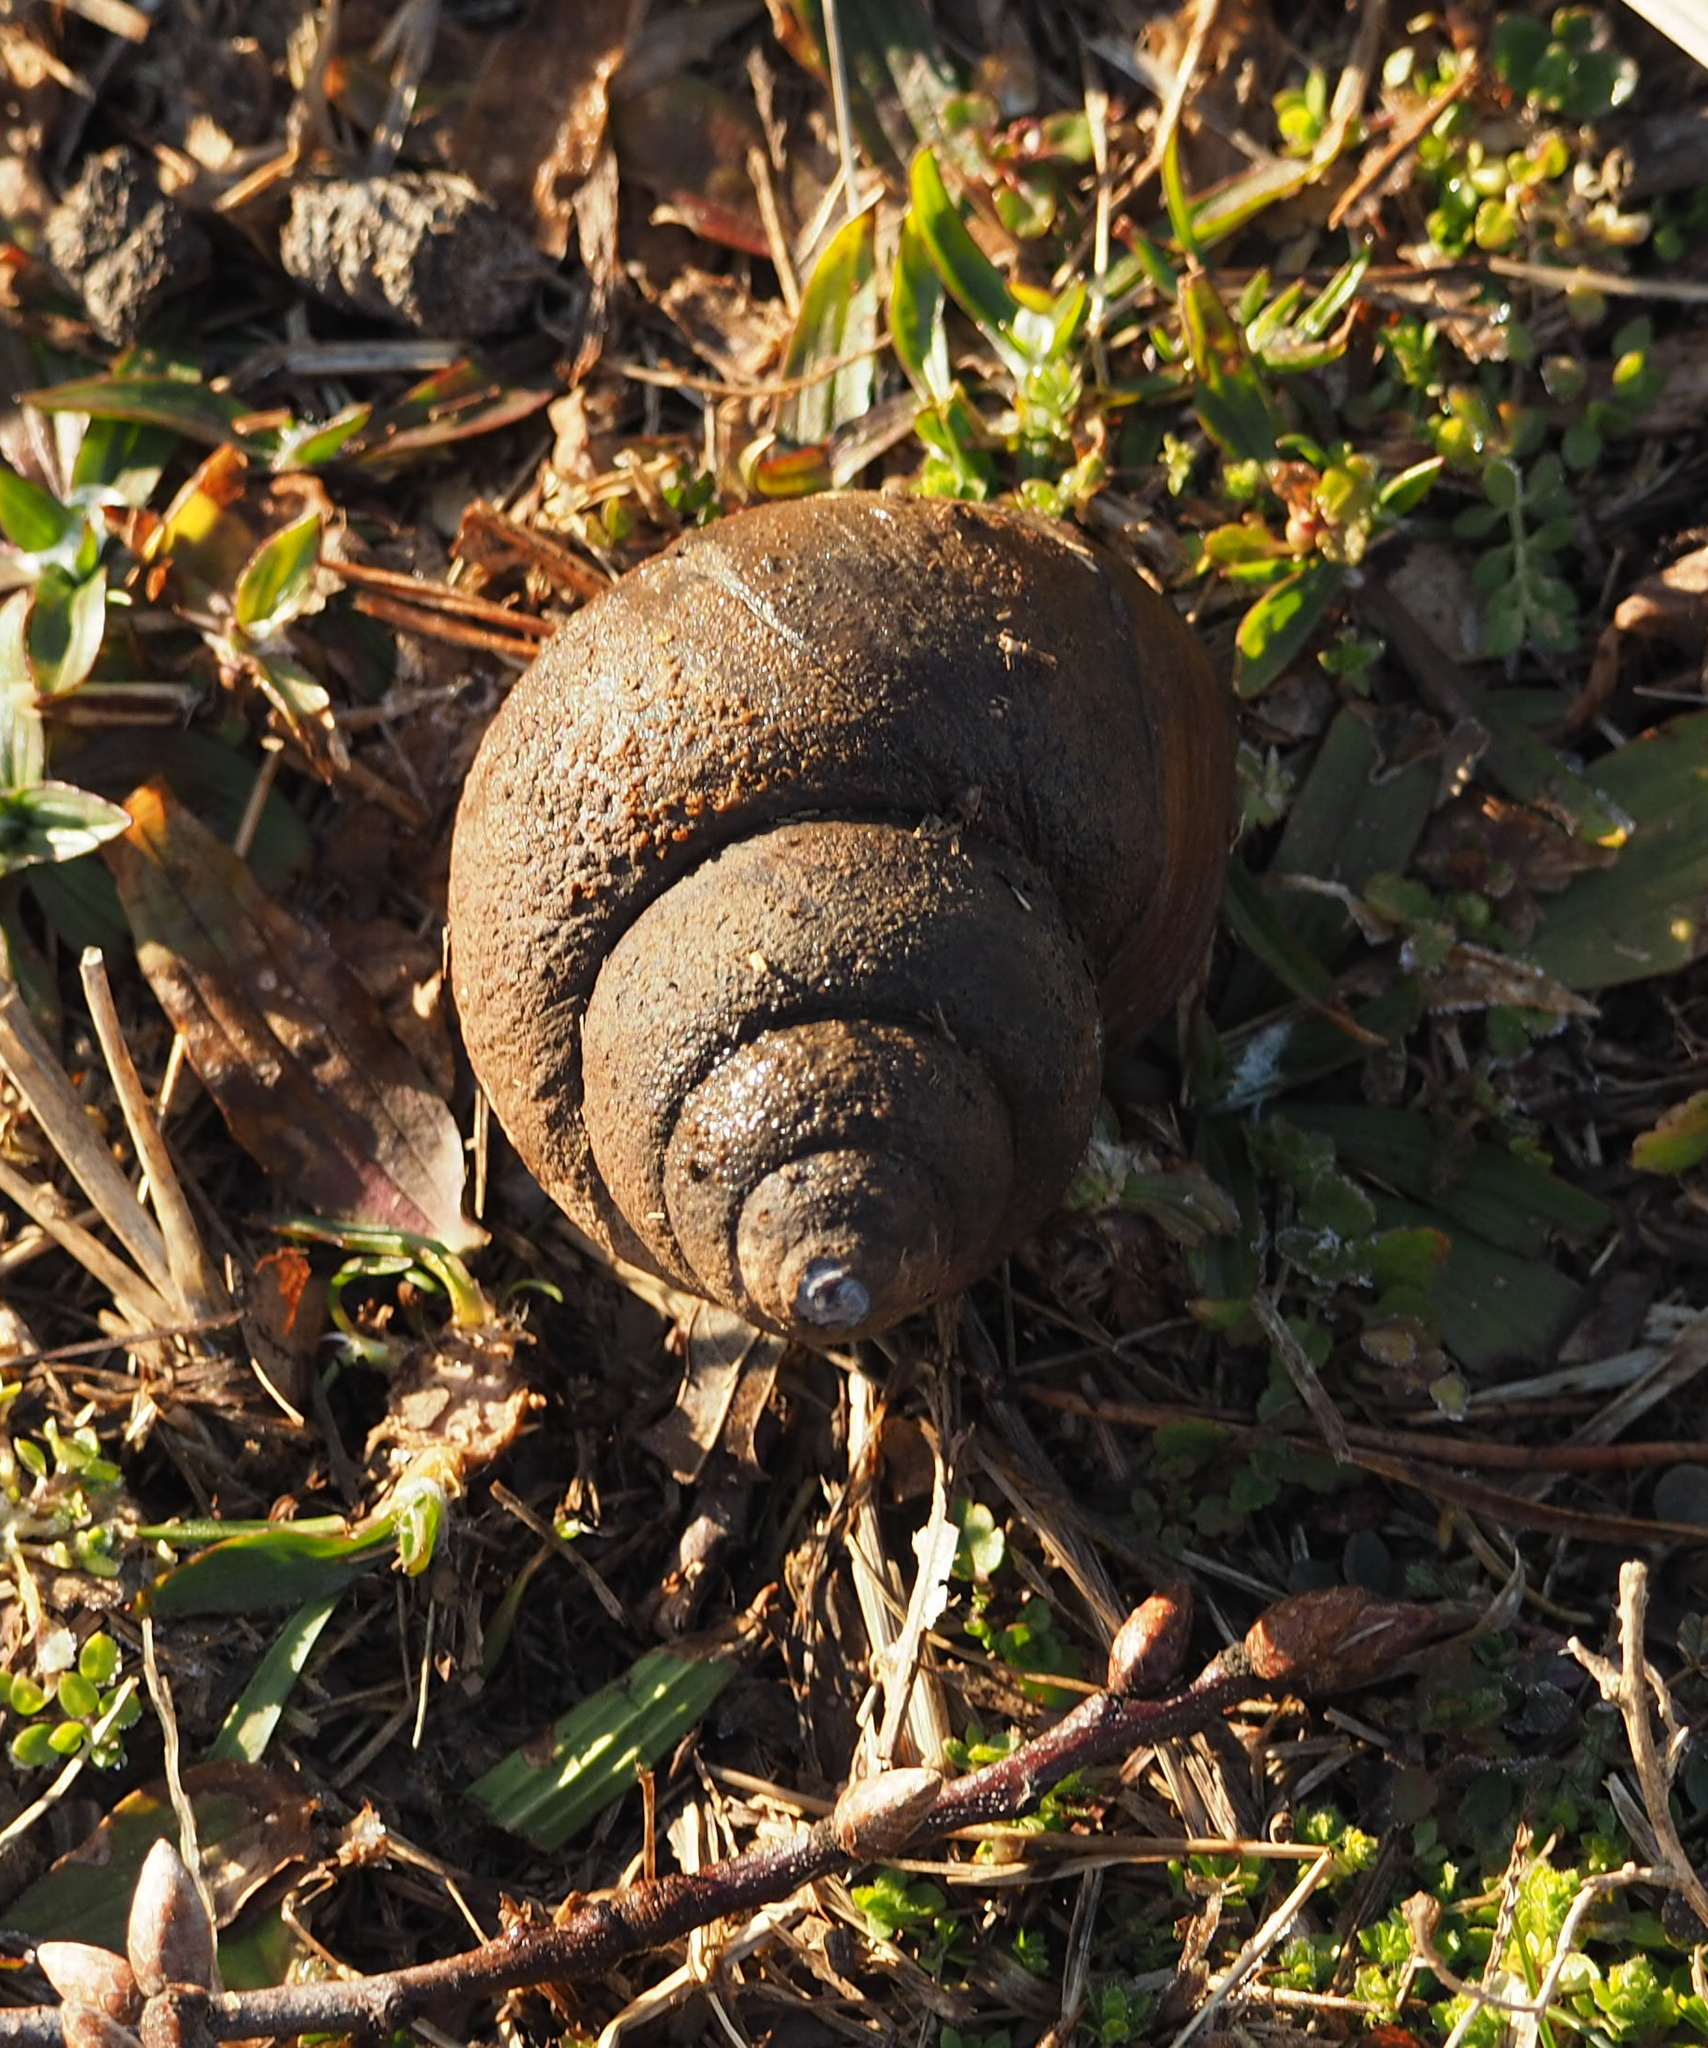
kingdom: Animalia
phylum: Mollusca
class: Gastropoda
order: Architaenioglossa
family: Viviparidae
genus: Cipangopaludina
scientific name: Cipangopaludina chinensis
